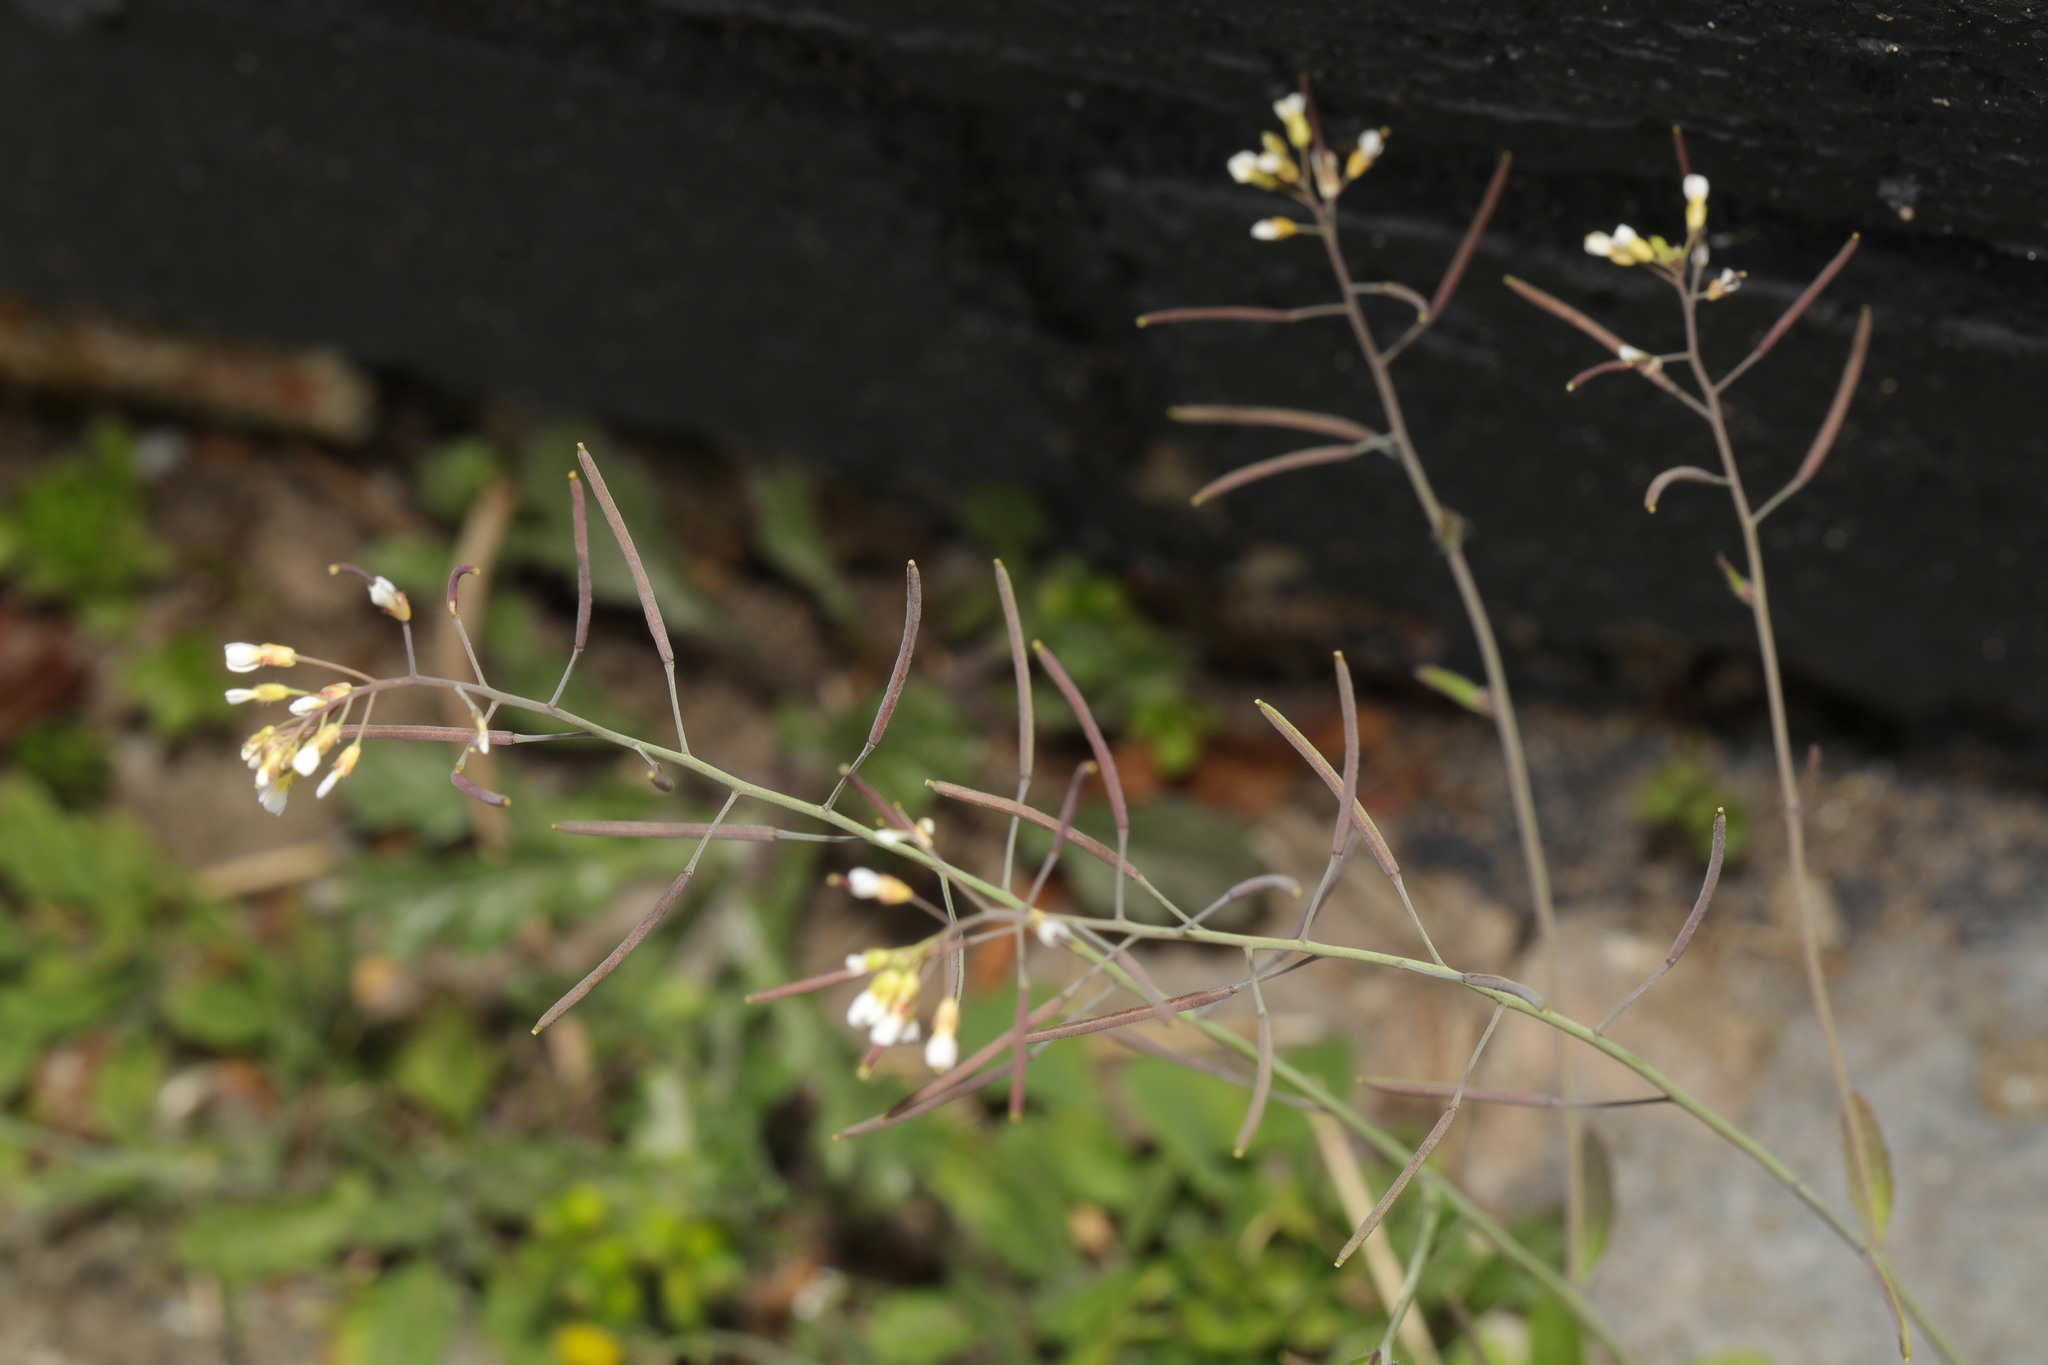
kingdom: Plantae
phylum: Tracheophyta
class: Magnoliopsida
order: Brassicales
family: Brassicaceae
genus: Arabidopsis
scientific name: Arabidopsis thaliana
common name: Thale cress
